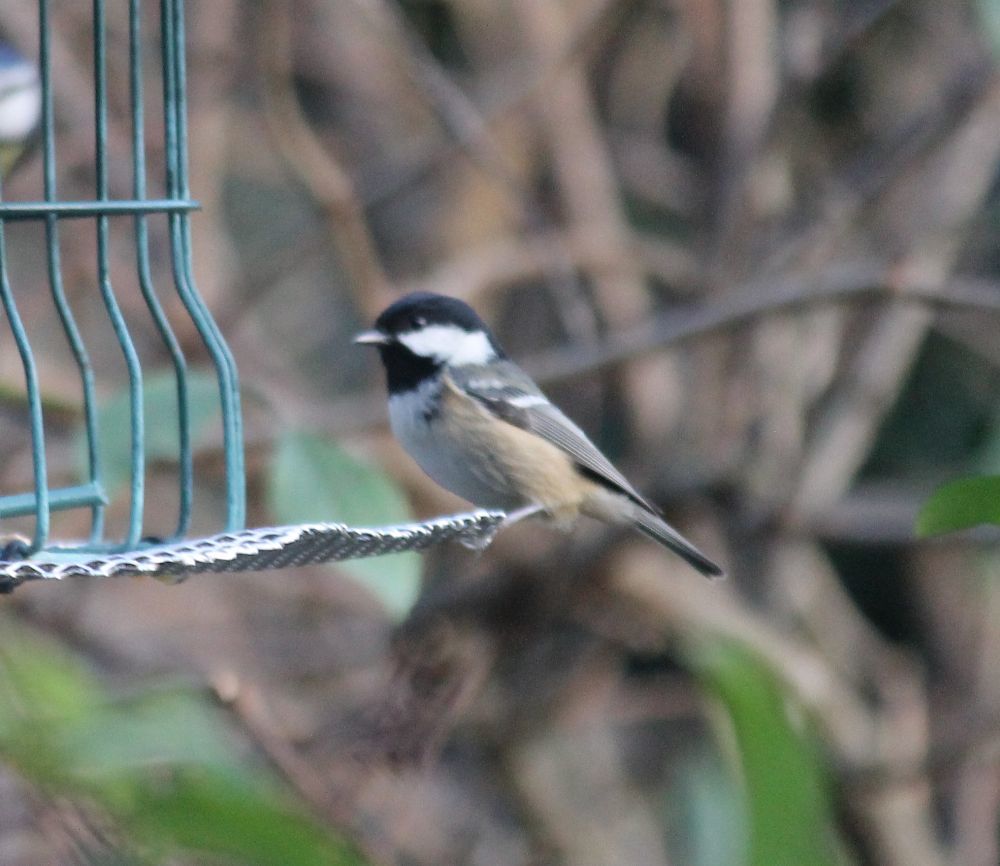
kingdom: Animalia
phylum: Chordata
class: Aves
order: Passeriformes
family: Paridae
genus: Periparus
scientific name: Periparus ater
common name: Coal tit
